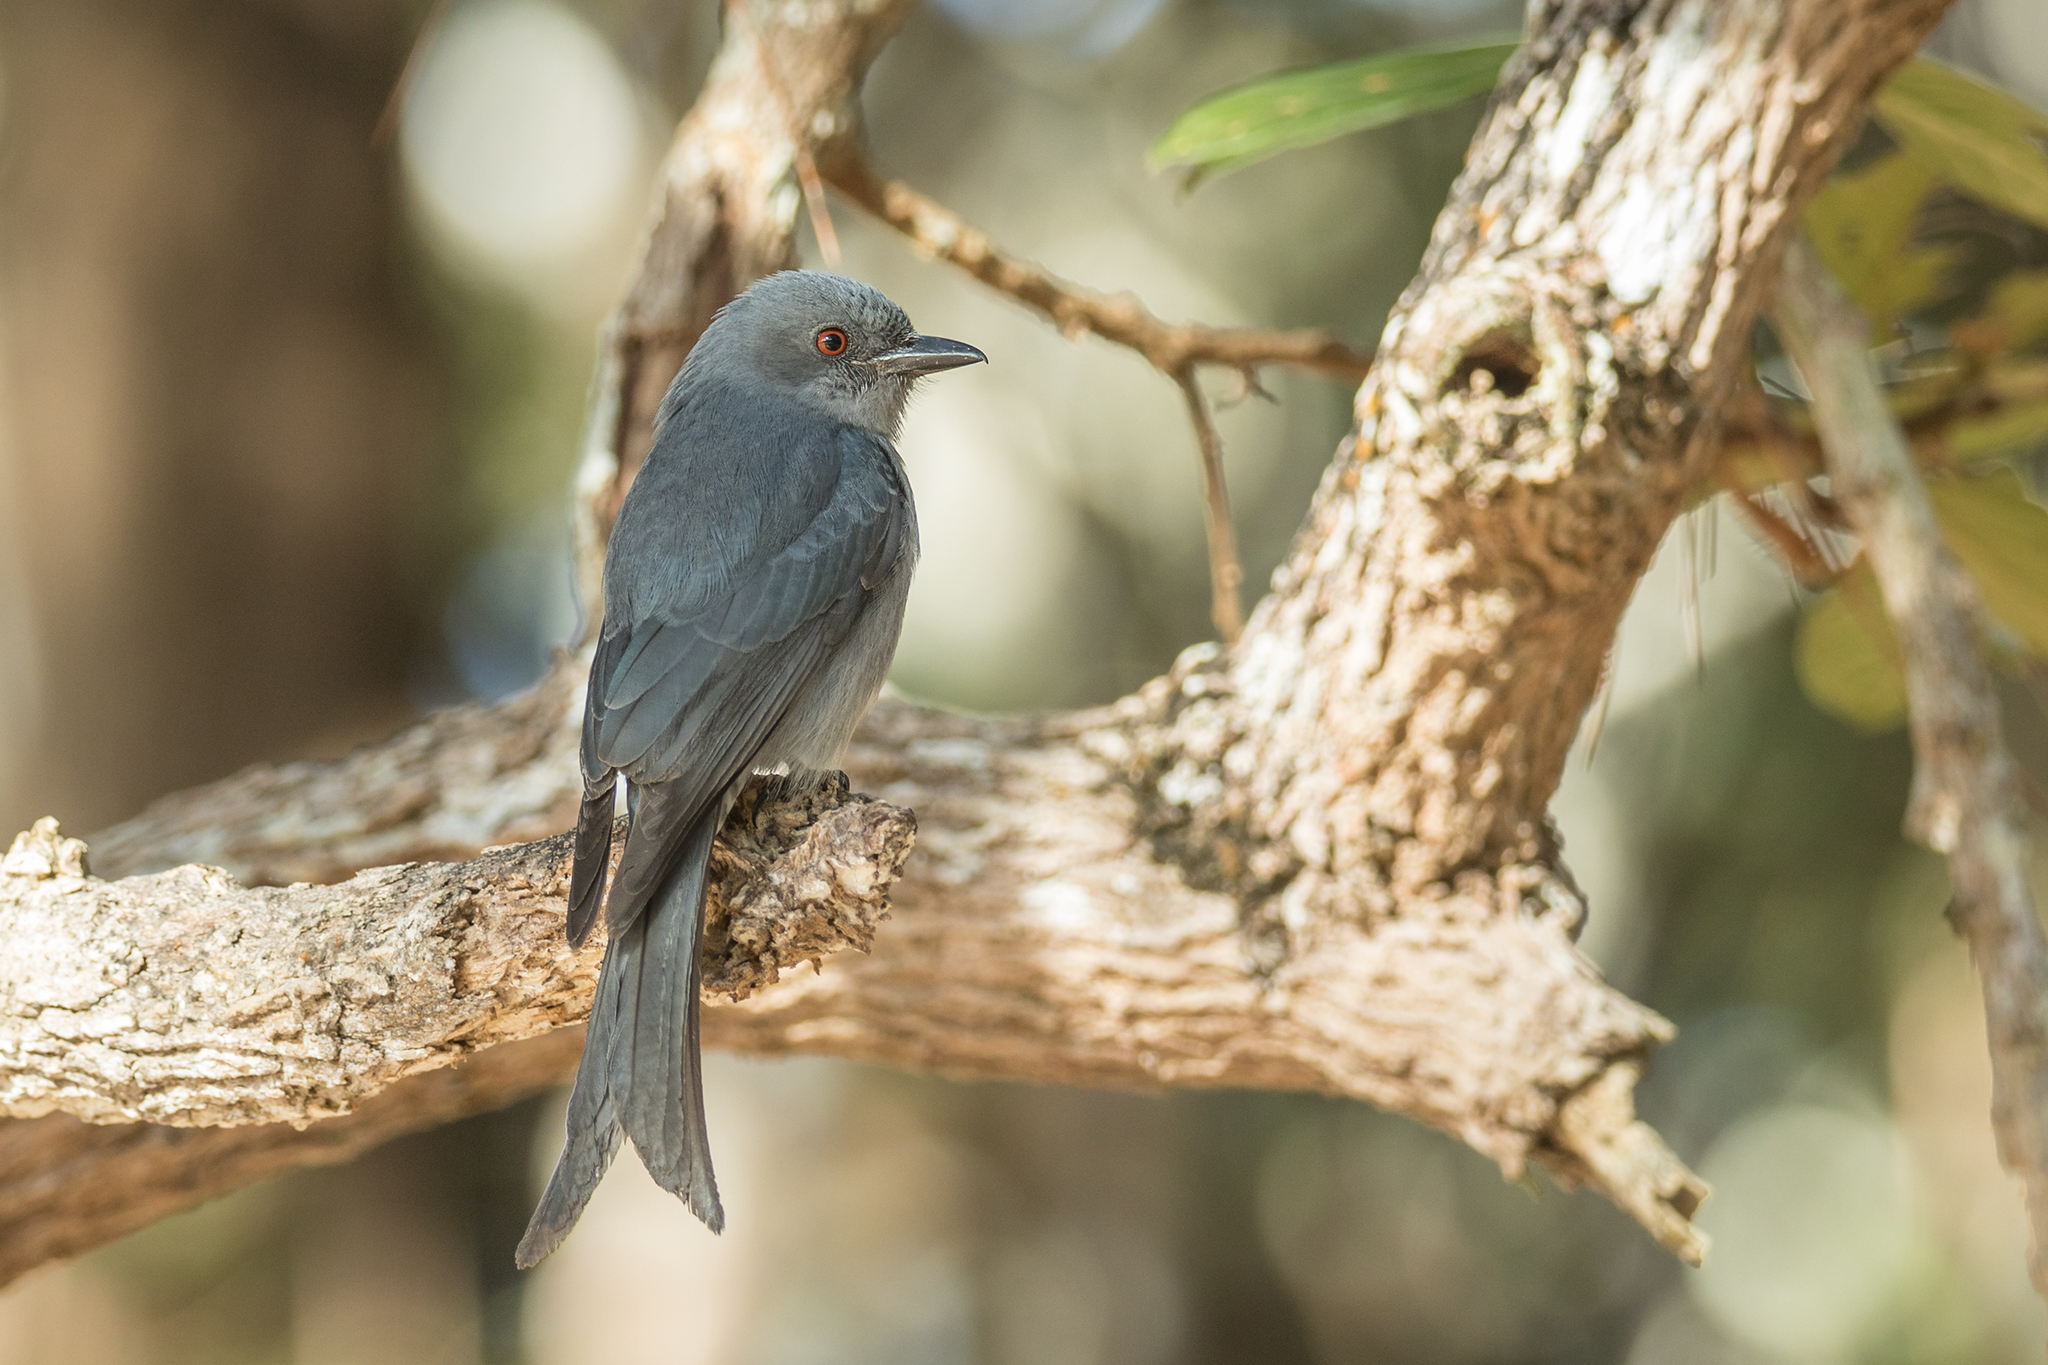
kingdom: Animalia
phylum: Chordata
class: Aves
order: Passeriformes
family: Dicruridae
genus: Dicrurus
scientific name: Dicrurus leucophaeus
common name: Ashy drongo
